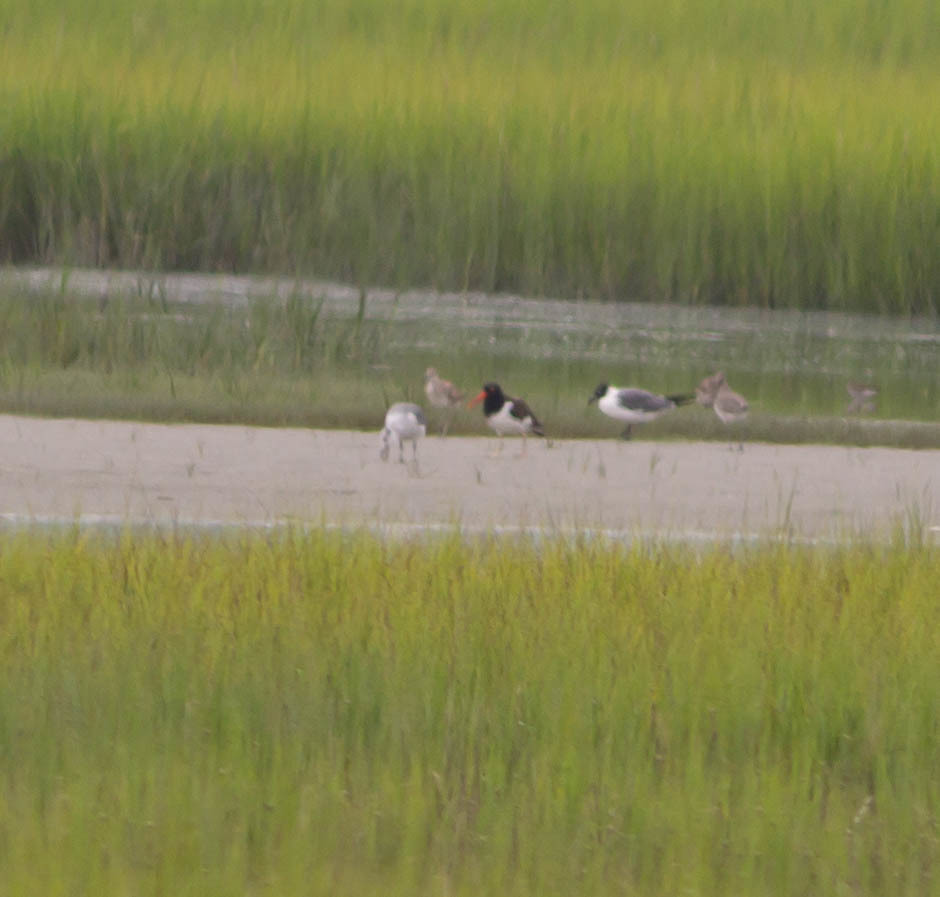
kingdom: Animalia
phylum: Chordata
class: Aves
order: Charadriiformes
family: Haematopodidae
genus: Haematopus
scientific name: Haematopus palliatus
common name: American oystercatcher
